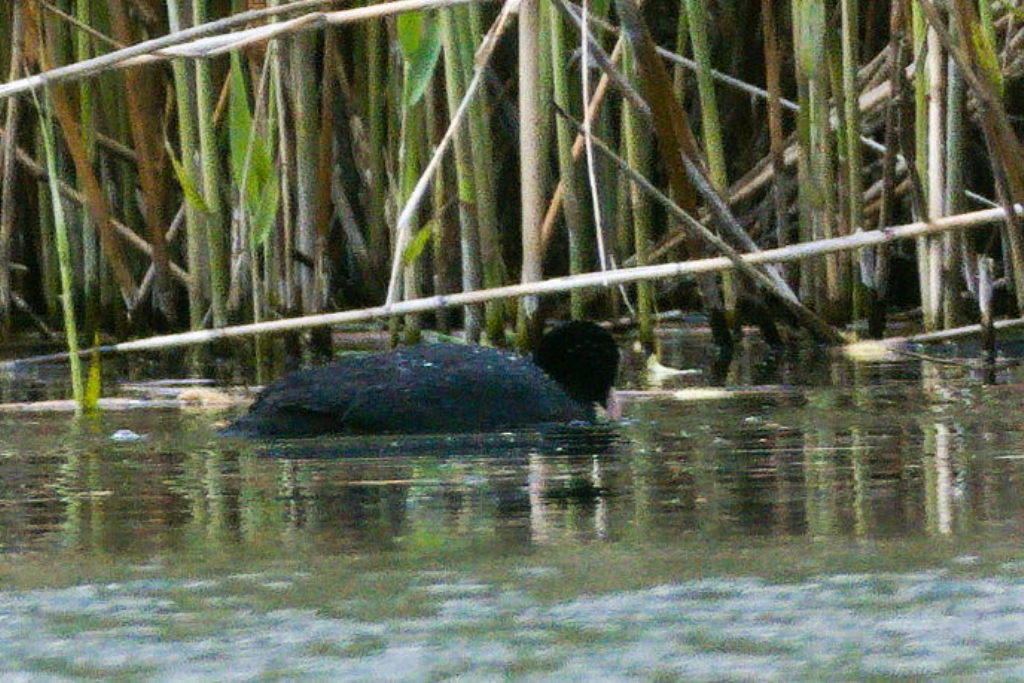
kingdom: Animalia
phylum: Chordata
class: Aves
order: Gruiformes
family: Rallidae
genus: Fulica
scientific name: Fulica atra
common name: Eurasian coot
